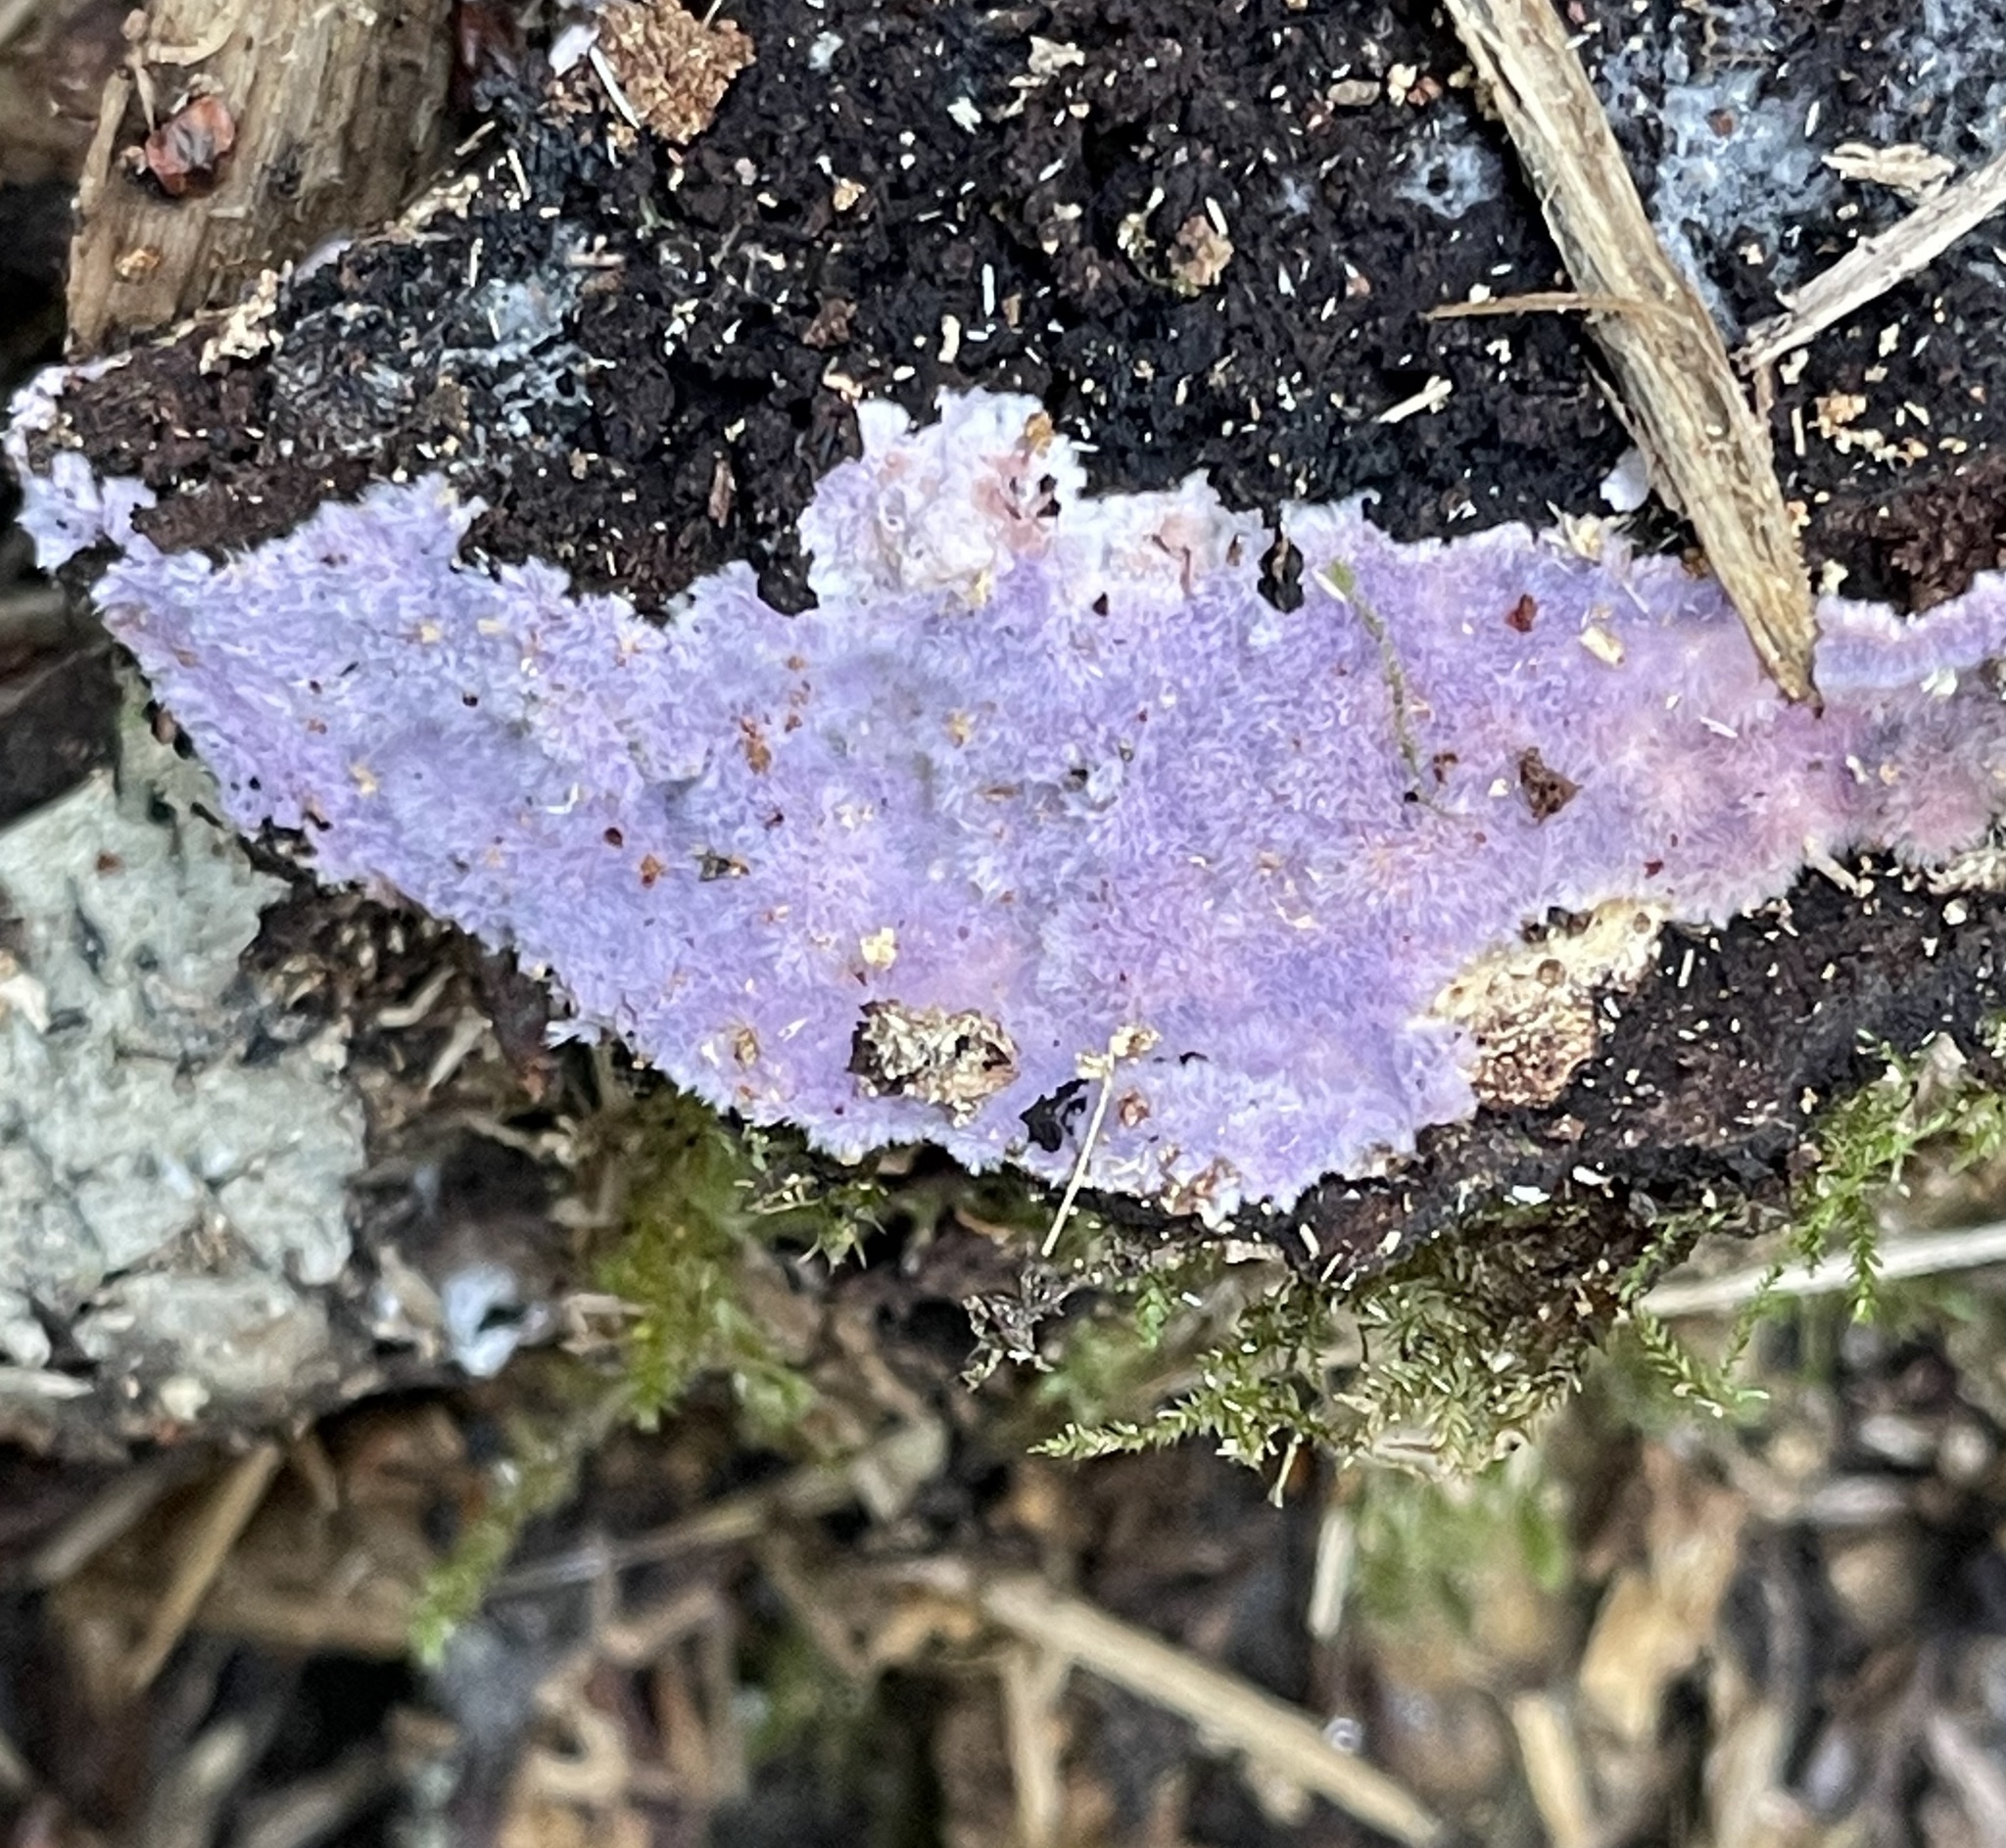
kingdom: Fungi
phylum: Basidiomycota
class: Agaricomycetes
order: Corticiales
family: Punctulariaceae
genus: Punctularia
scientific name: Punctularia atropurpurascens
